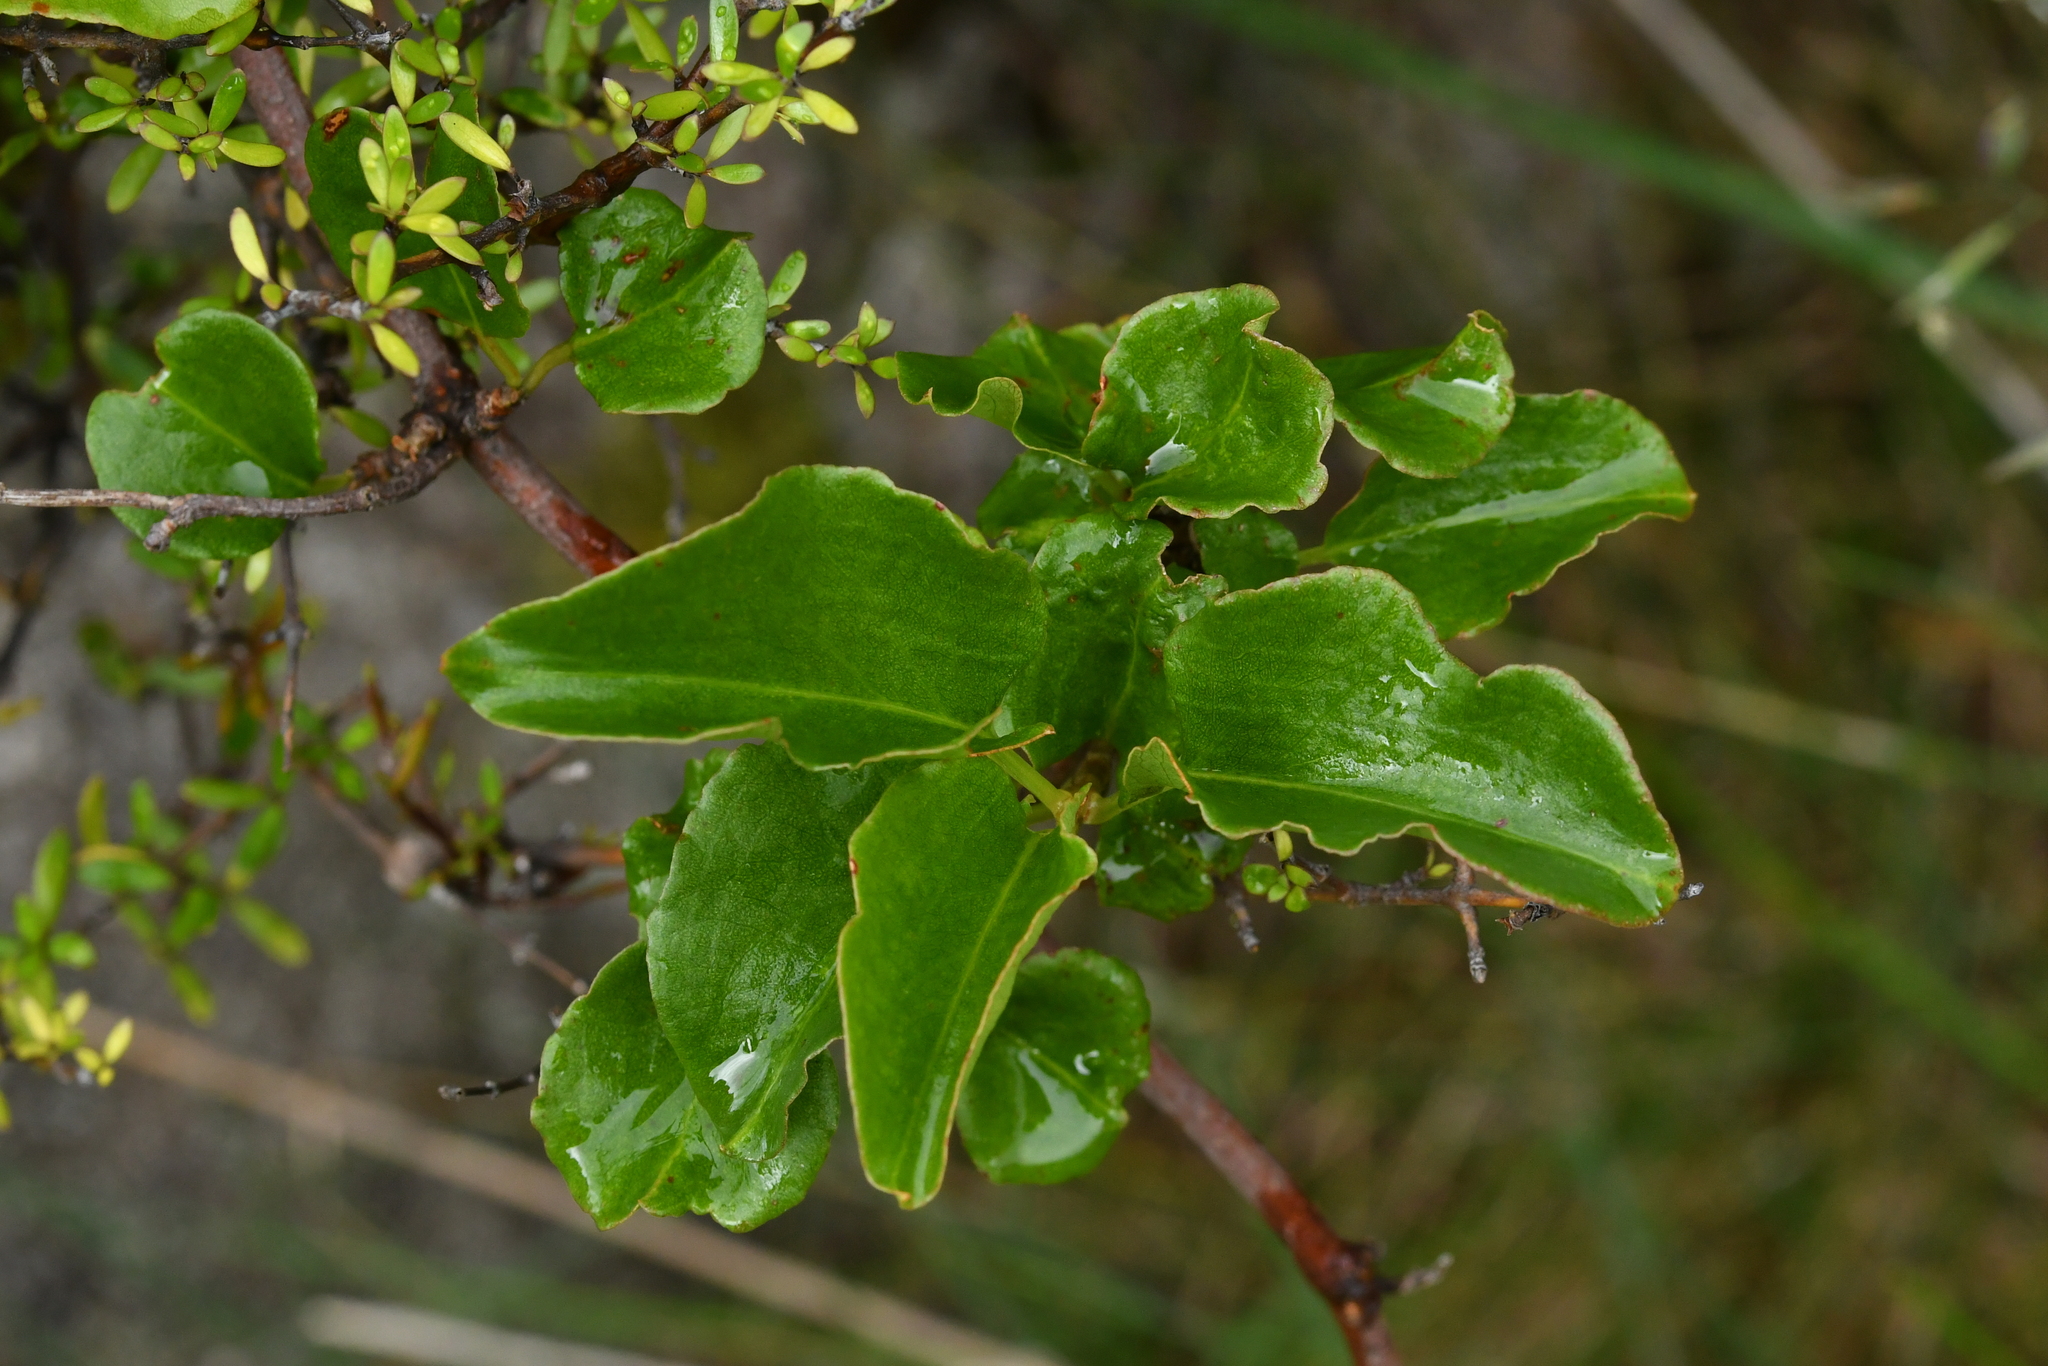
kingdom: Plantae
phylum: Tracheophyta
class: Magnoliopsida
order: Caryophyllales
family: Polygonaceae
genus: Muehlenbeckia
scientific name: Muehlenbeckia australis
